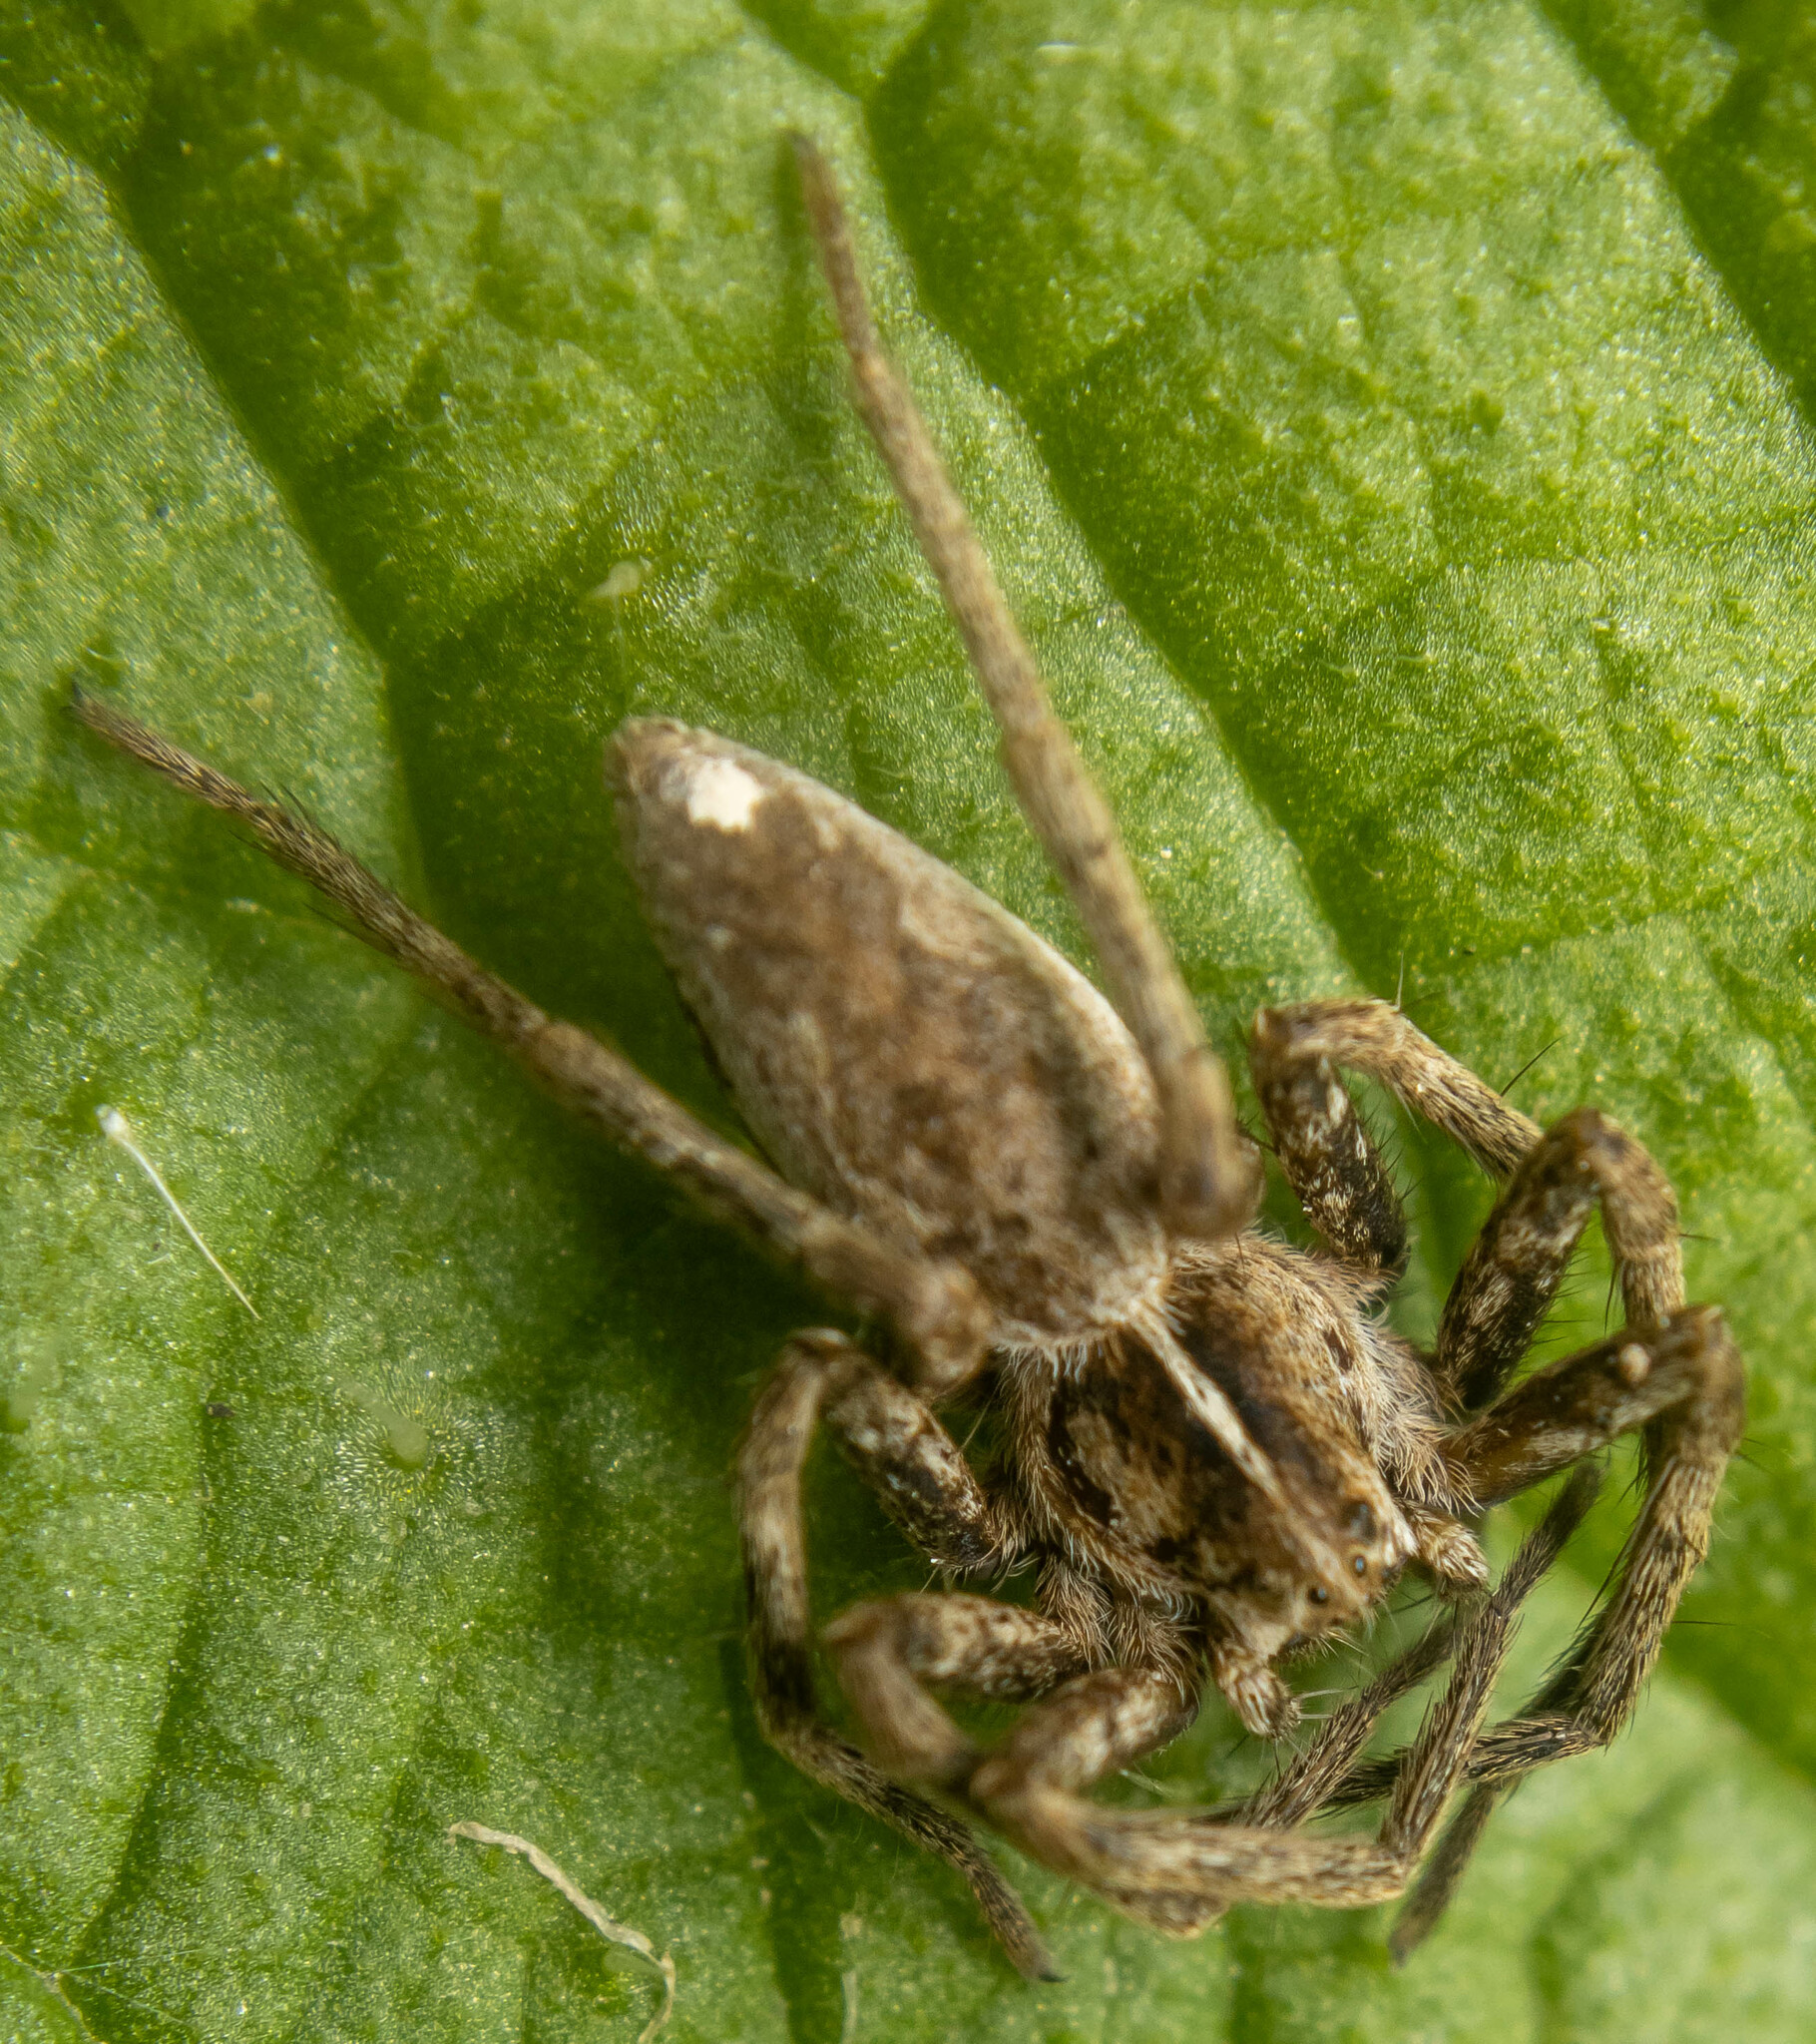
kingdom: Animalia
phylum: Arthropoda
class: Arachnida
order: Araneae
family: Pisauridae
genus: Pisaura
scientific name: Pisaura mirabilis
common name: Tent spider
